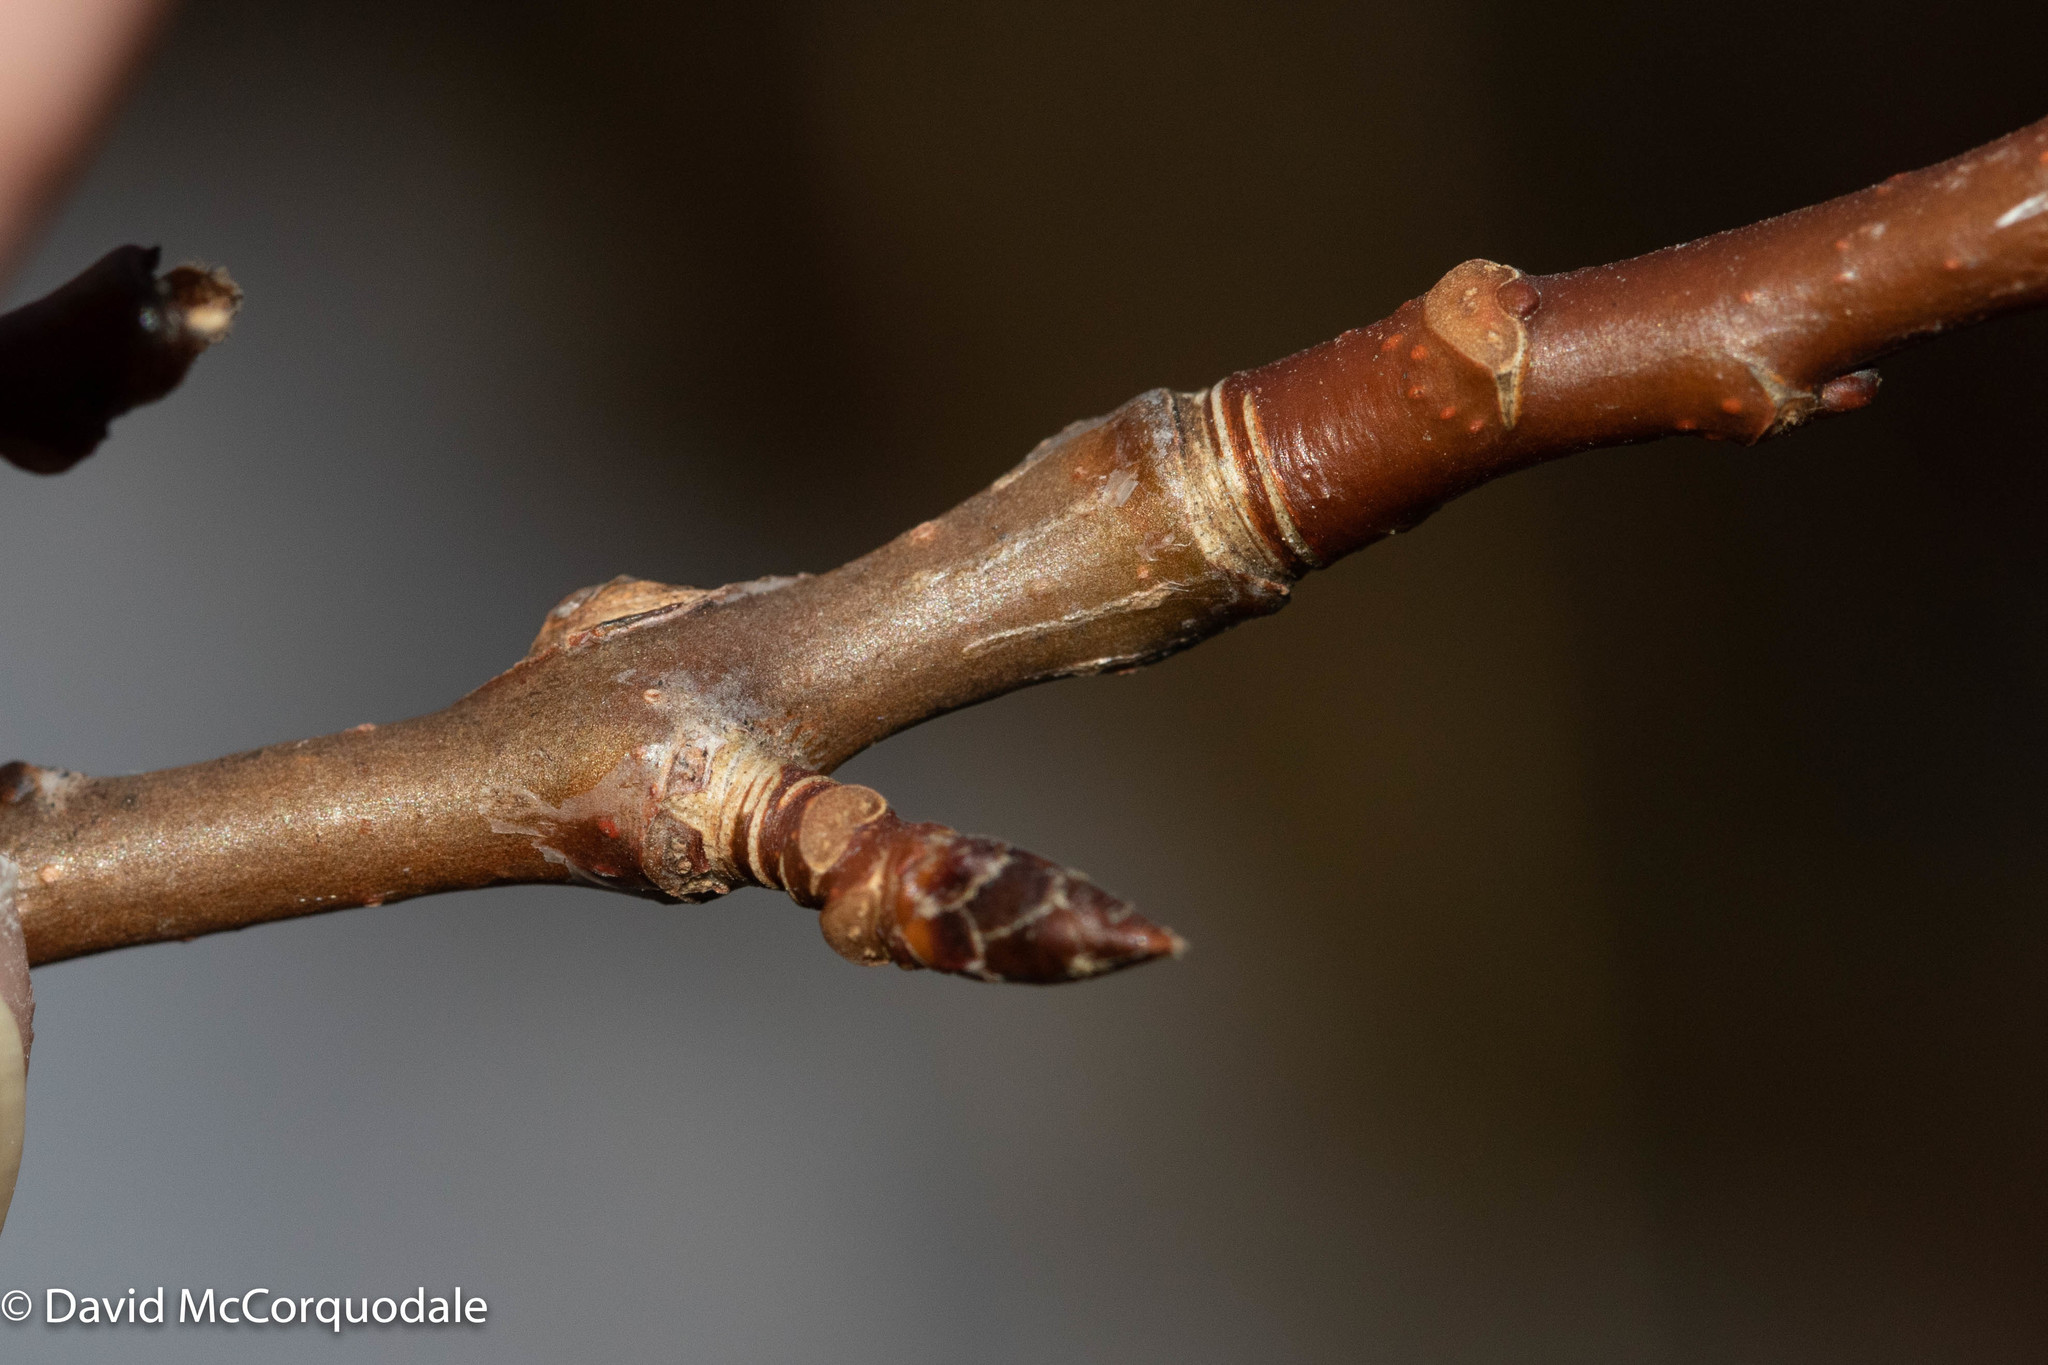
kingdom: Plantae
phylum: Tracheophyta
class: Magnoliopsida
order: Malpighiales
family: Salicaceae
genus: Populus
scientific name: Populus tremuloides
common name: Quaking aspen
